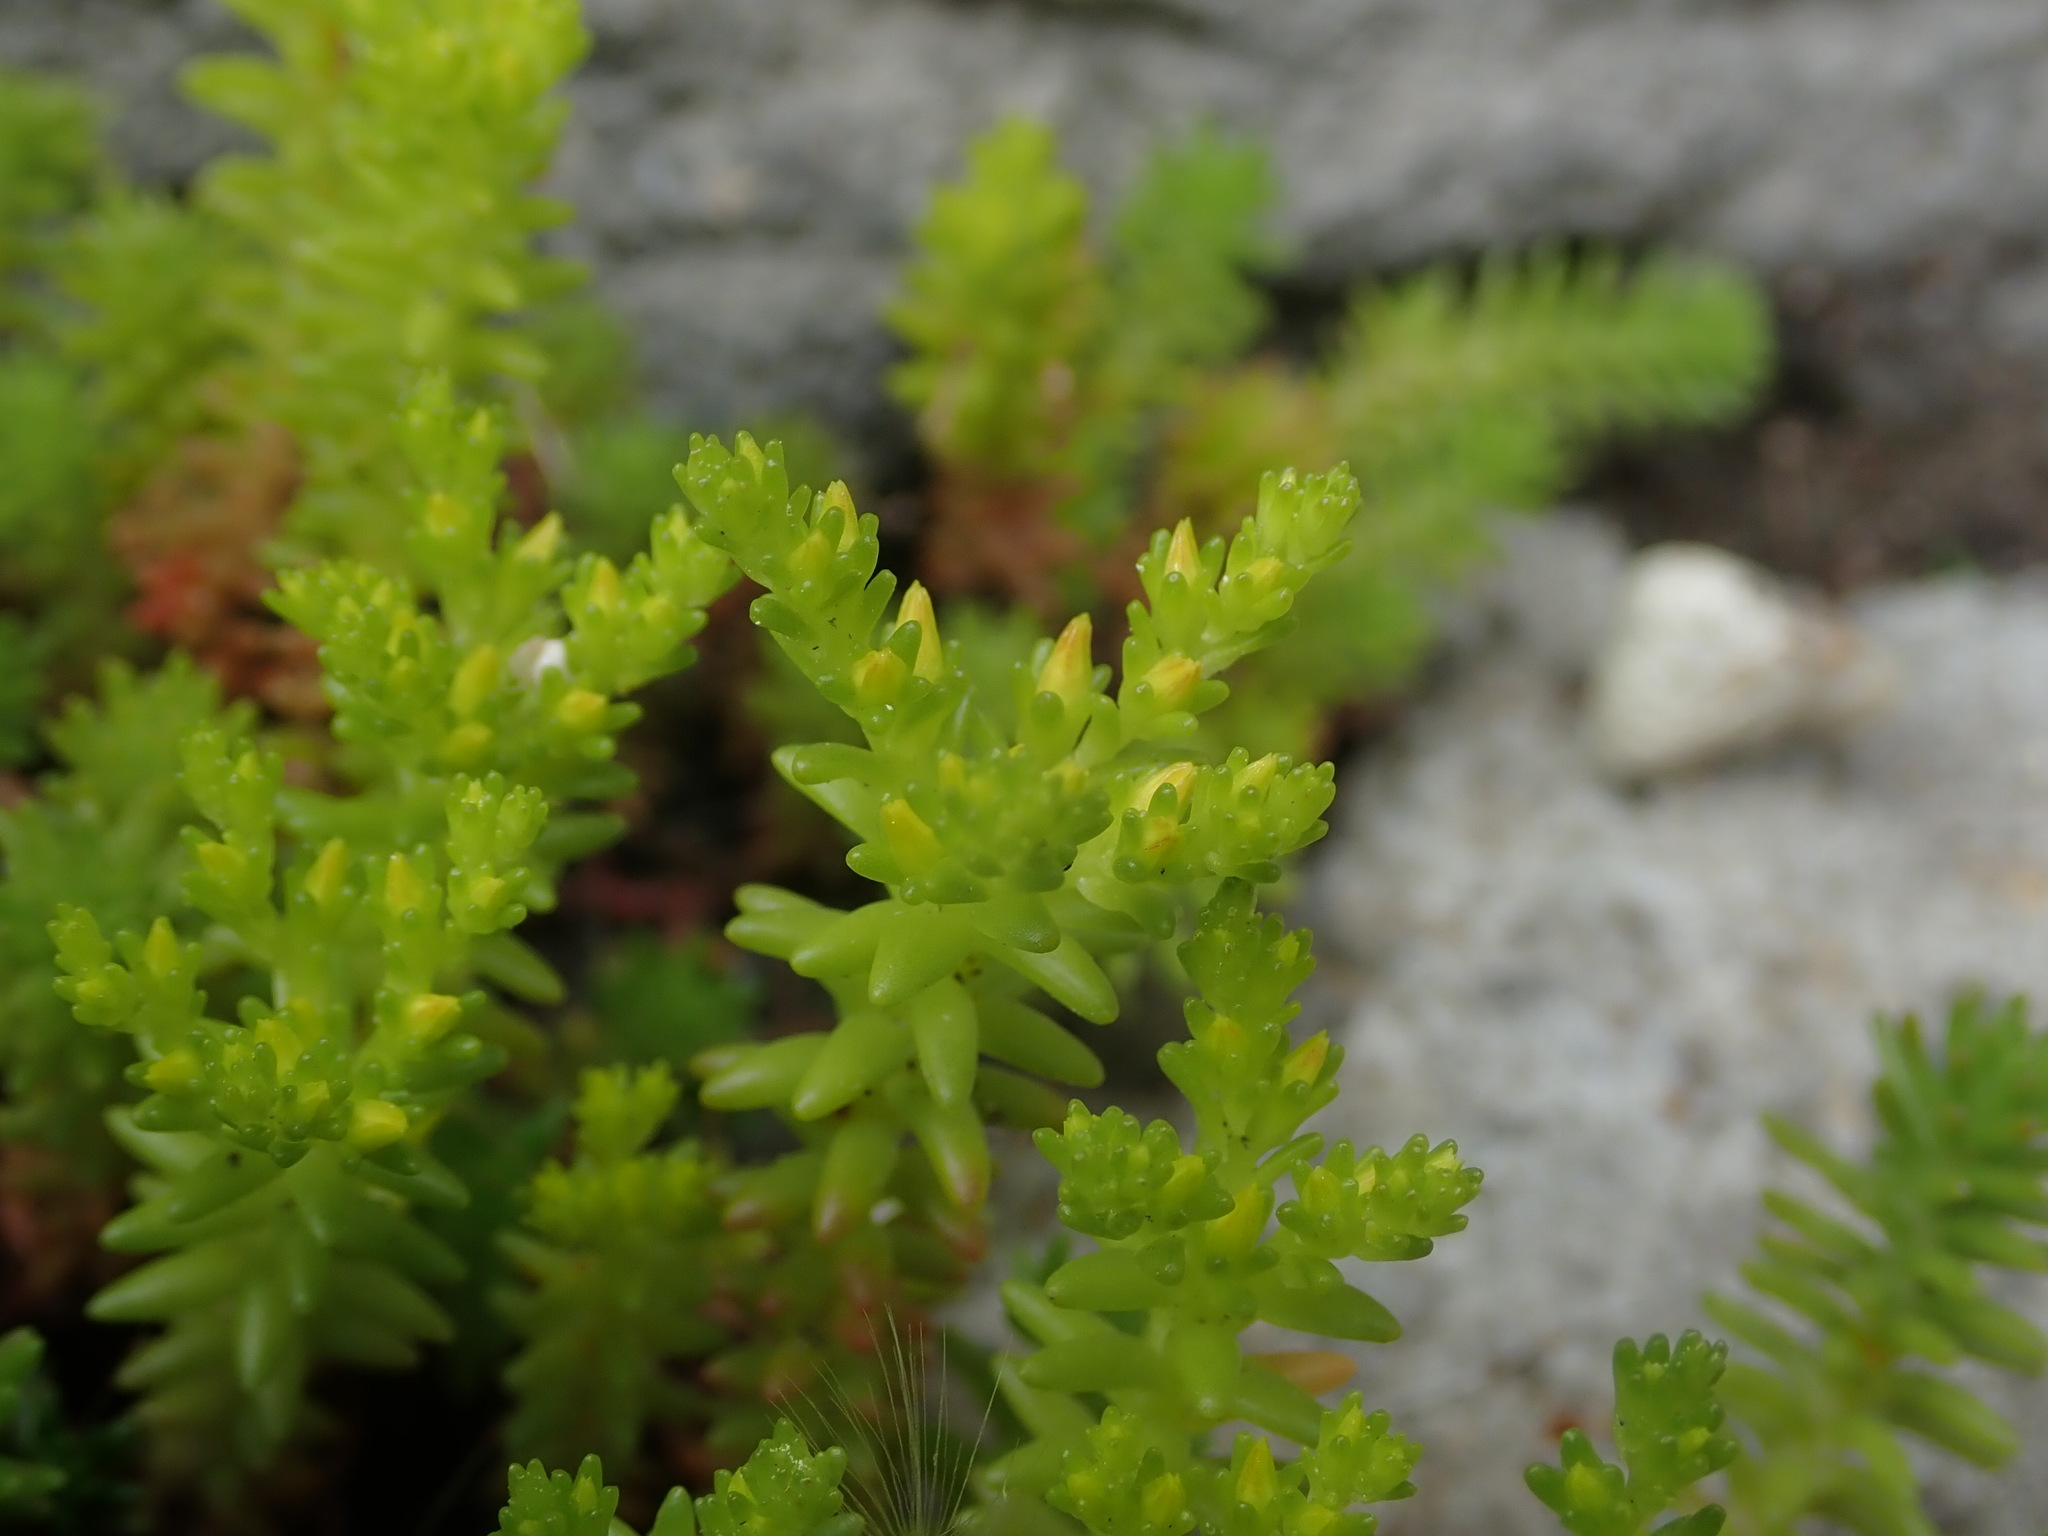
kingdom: Plantae
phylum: Tracheophyta
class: Magnoliopsida
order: Saxifragales
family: Crassulaceae
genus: Sedum
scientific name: Sedum sexangulare
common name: Tasteless stonecrop
